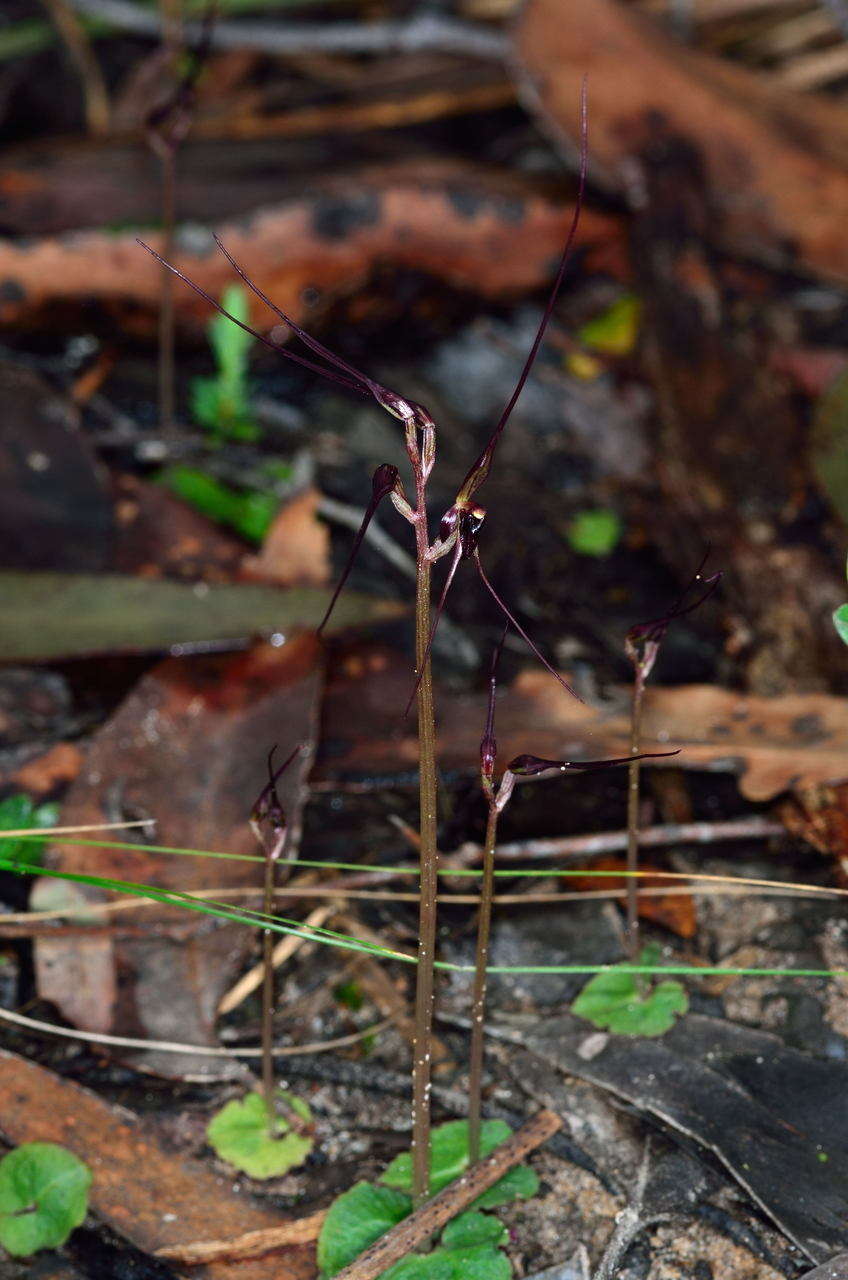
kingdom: Plantae
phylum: Tracheophyta
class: Liliopsida
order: Asparagales
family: Orchidaceae
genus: Acianthus
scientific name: Acianthus caudatus
